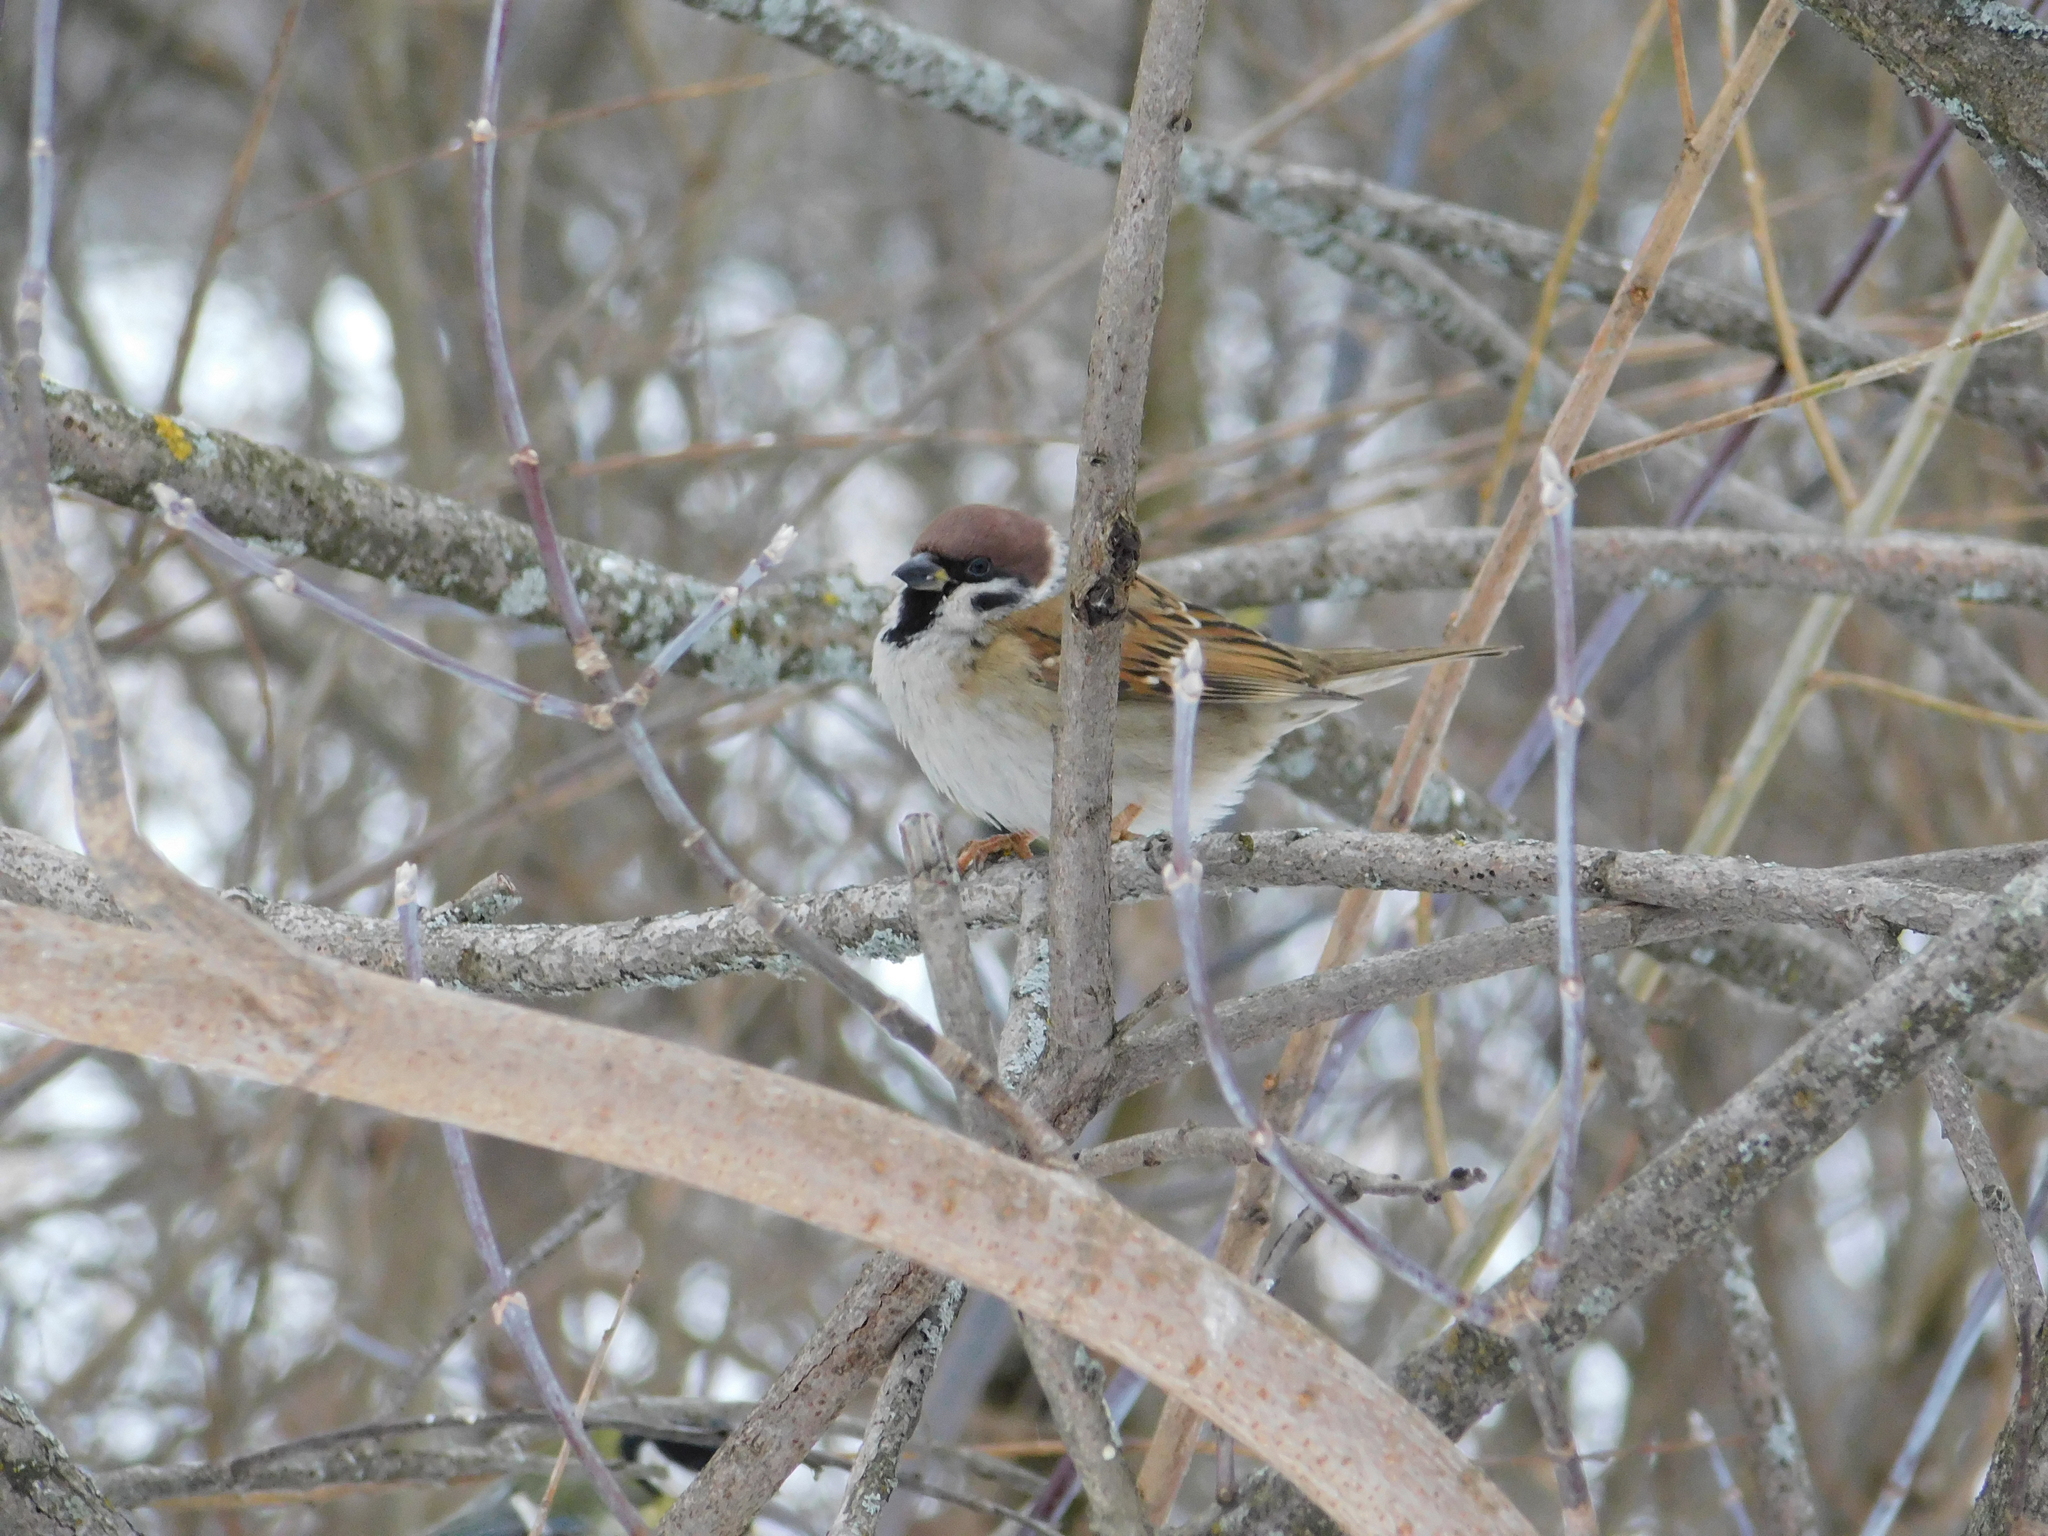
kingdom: Animalia
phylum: Chordata
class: Aves
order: Passeriformes
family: Passeridae
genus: Passer
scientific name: Passer montanus
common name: Eurasian tree sparrow
